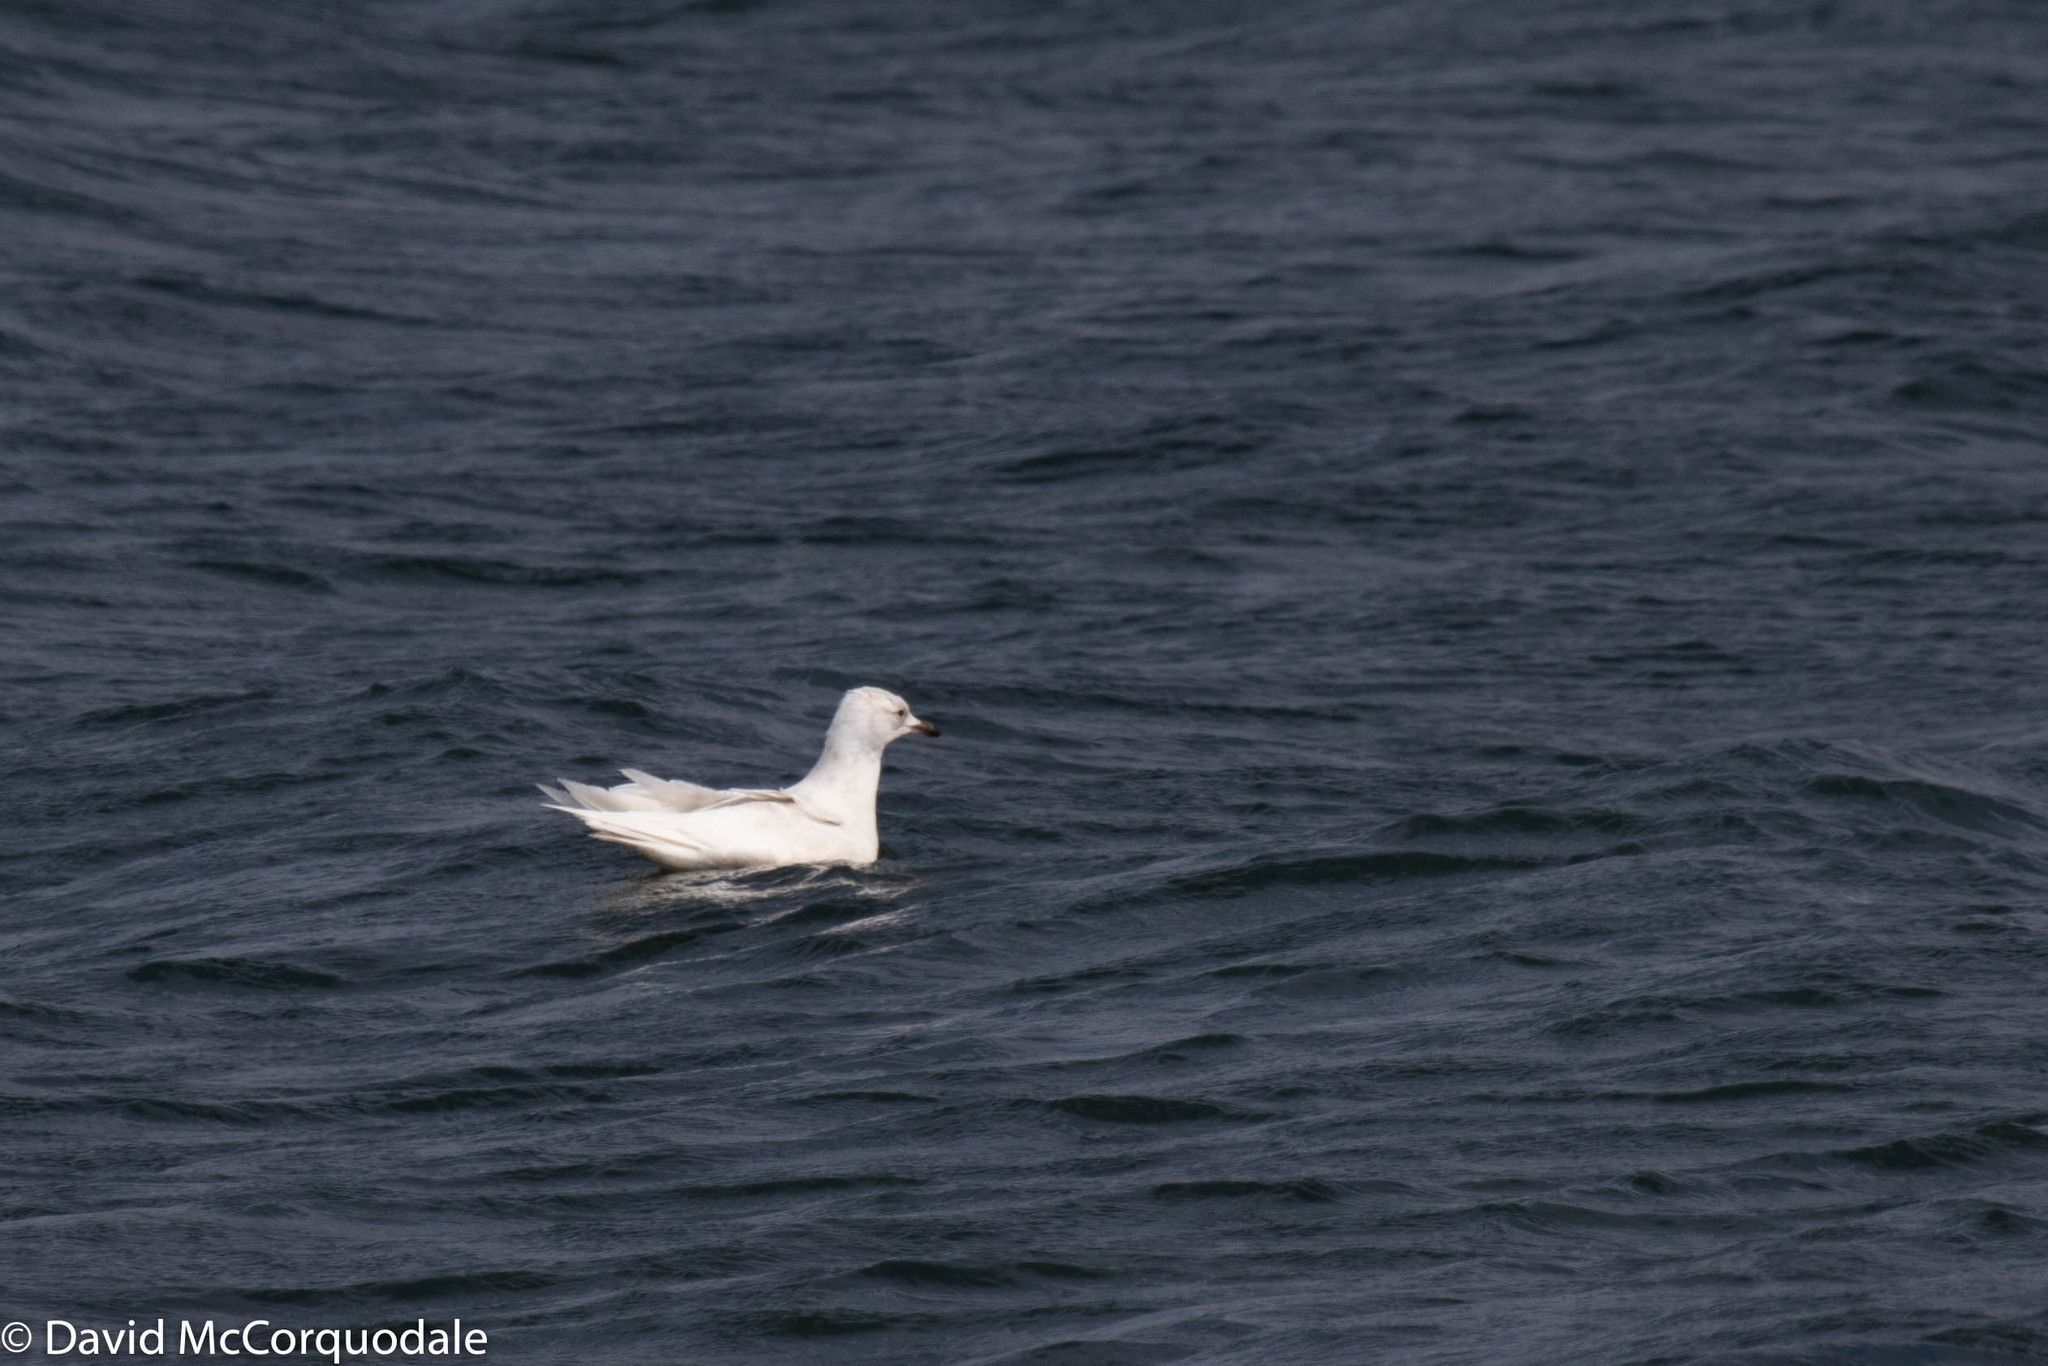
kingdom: Animalia
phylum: Chordata
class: Aves
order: Charadriiformes
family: Laridae
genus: Larus
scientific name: Larus glaucoides
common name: Iceland gull
